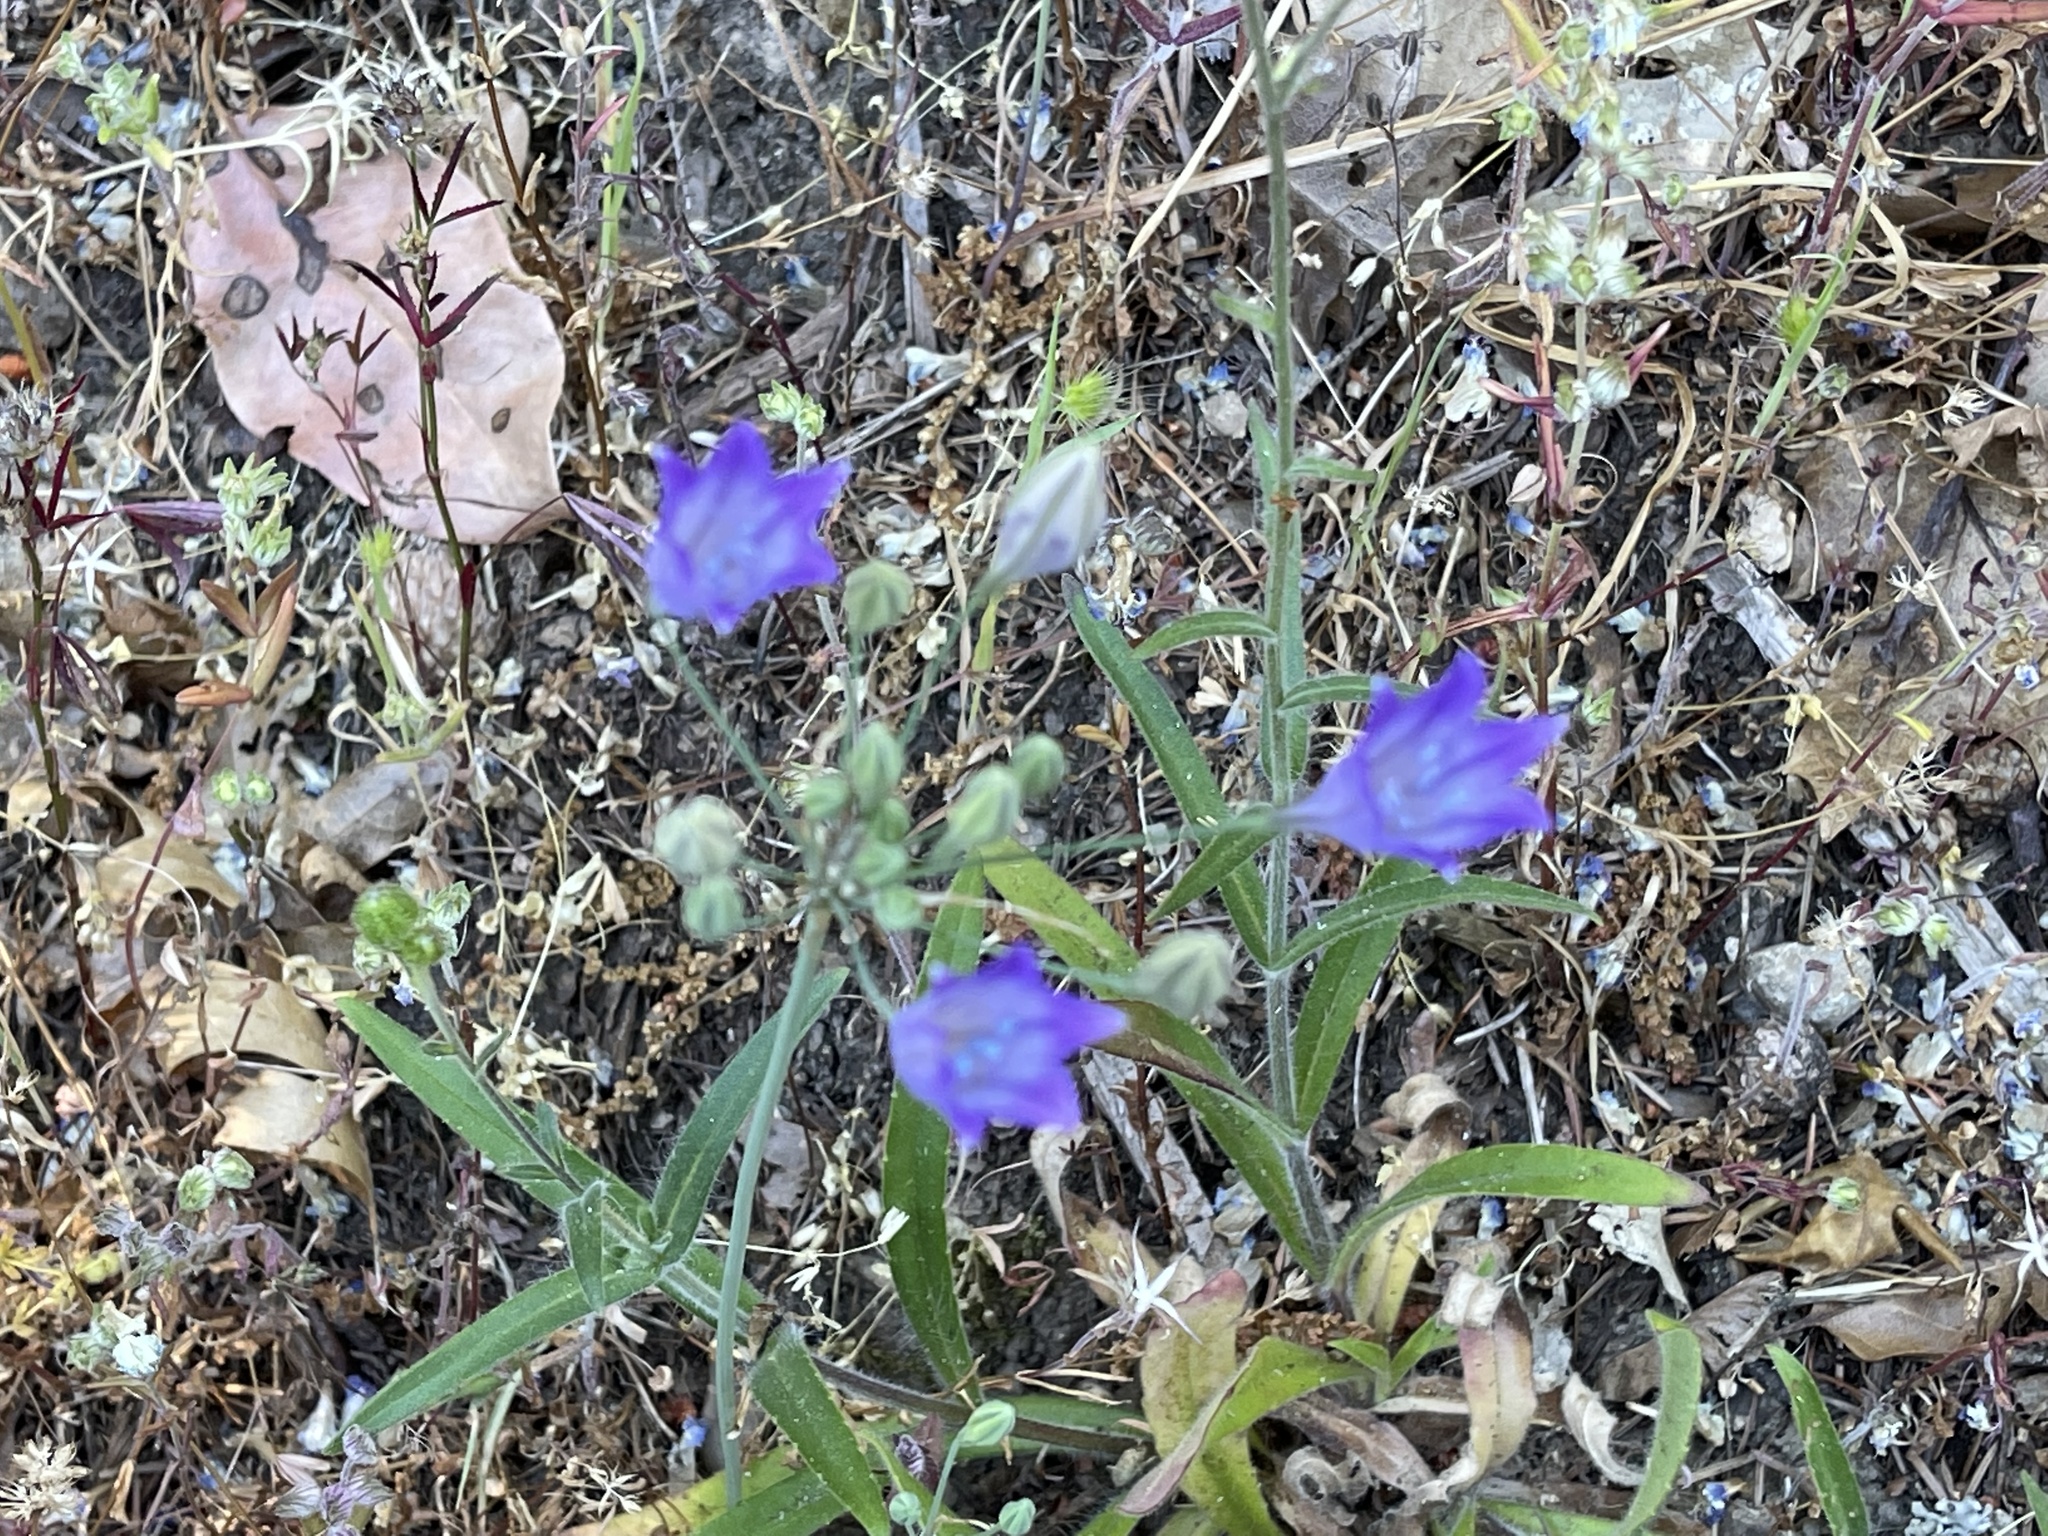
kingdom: Plantae
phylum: Tracheophyta
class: Liliopsida
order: Asparagales
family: Asparagaceae
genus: Triteleia
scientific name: Triteleia laxa
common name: Triplet-lily
